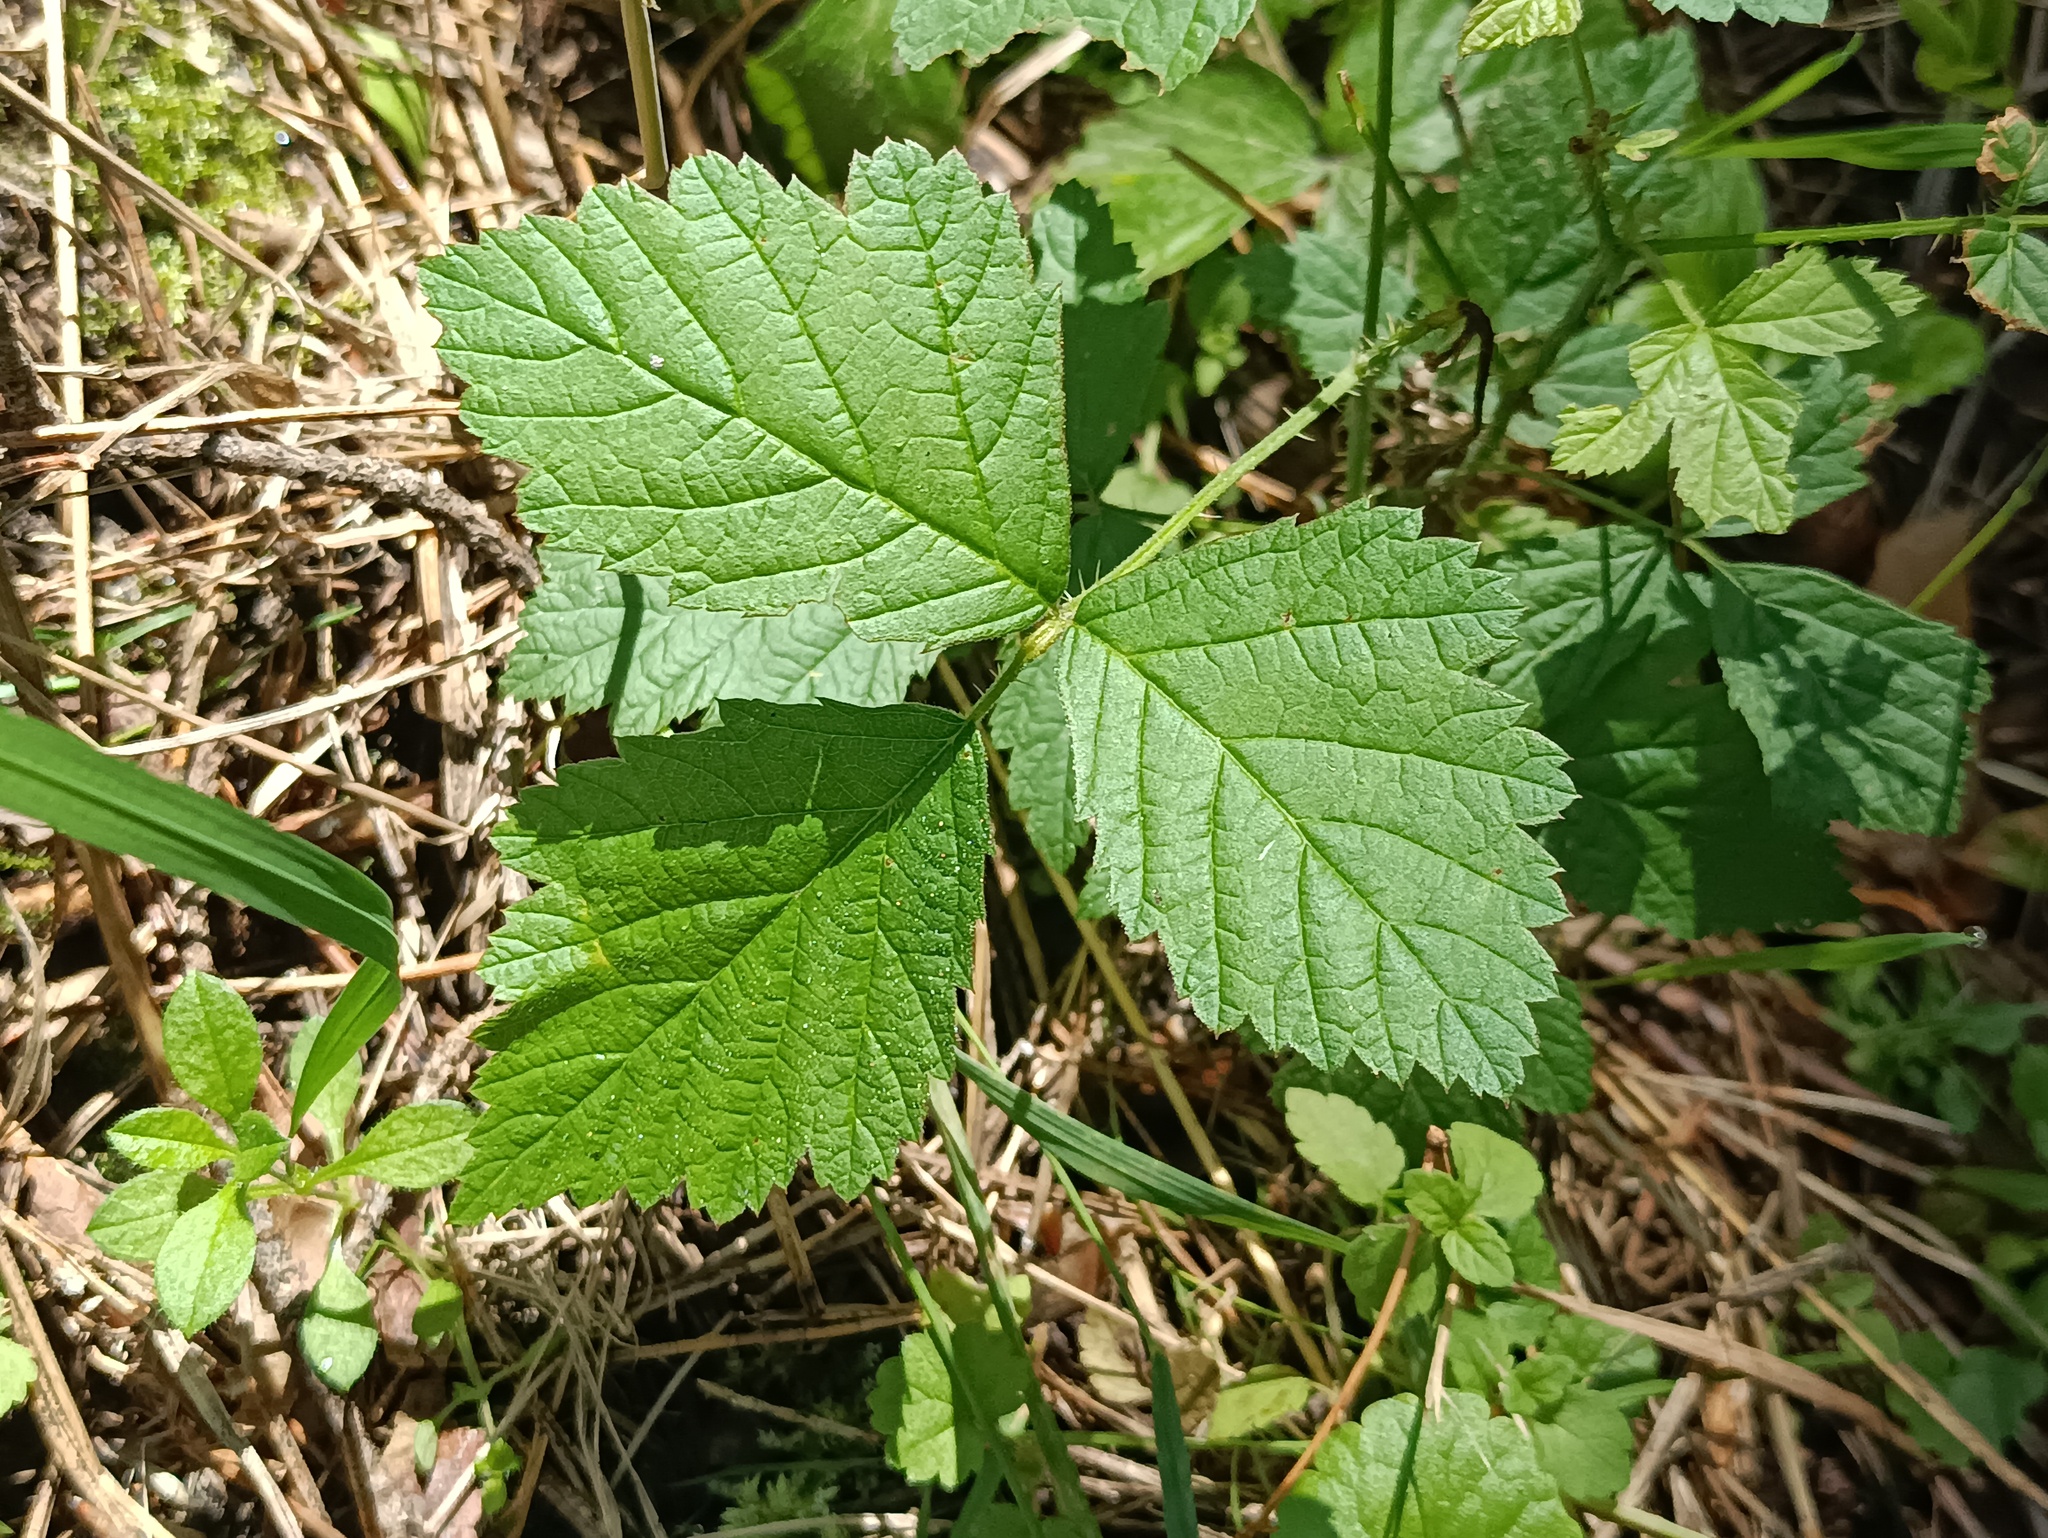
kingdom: Plantae
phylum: Tracheophyta
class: Magnoliopsida
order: Rosales
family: Rosaceae
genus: Rubus
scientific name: Rubus saxatilis
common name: Stone bramble
